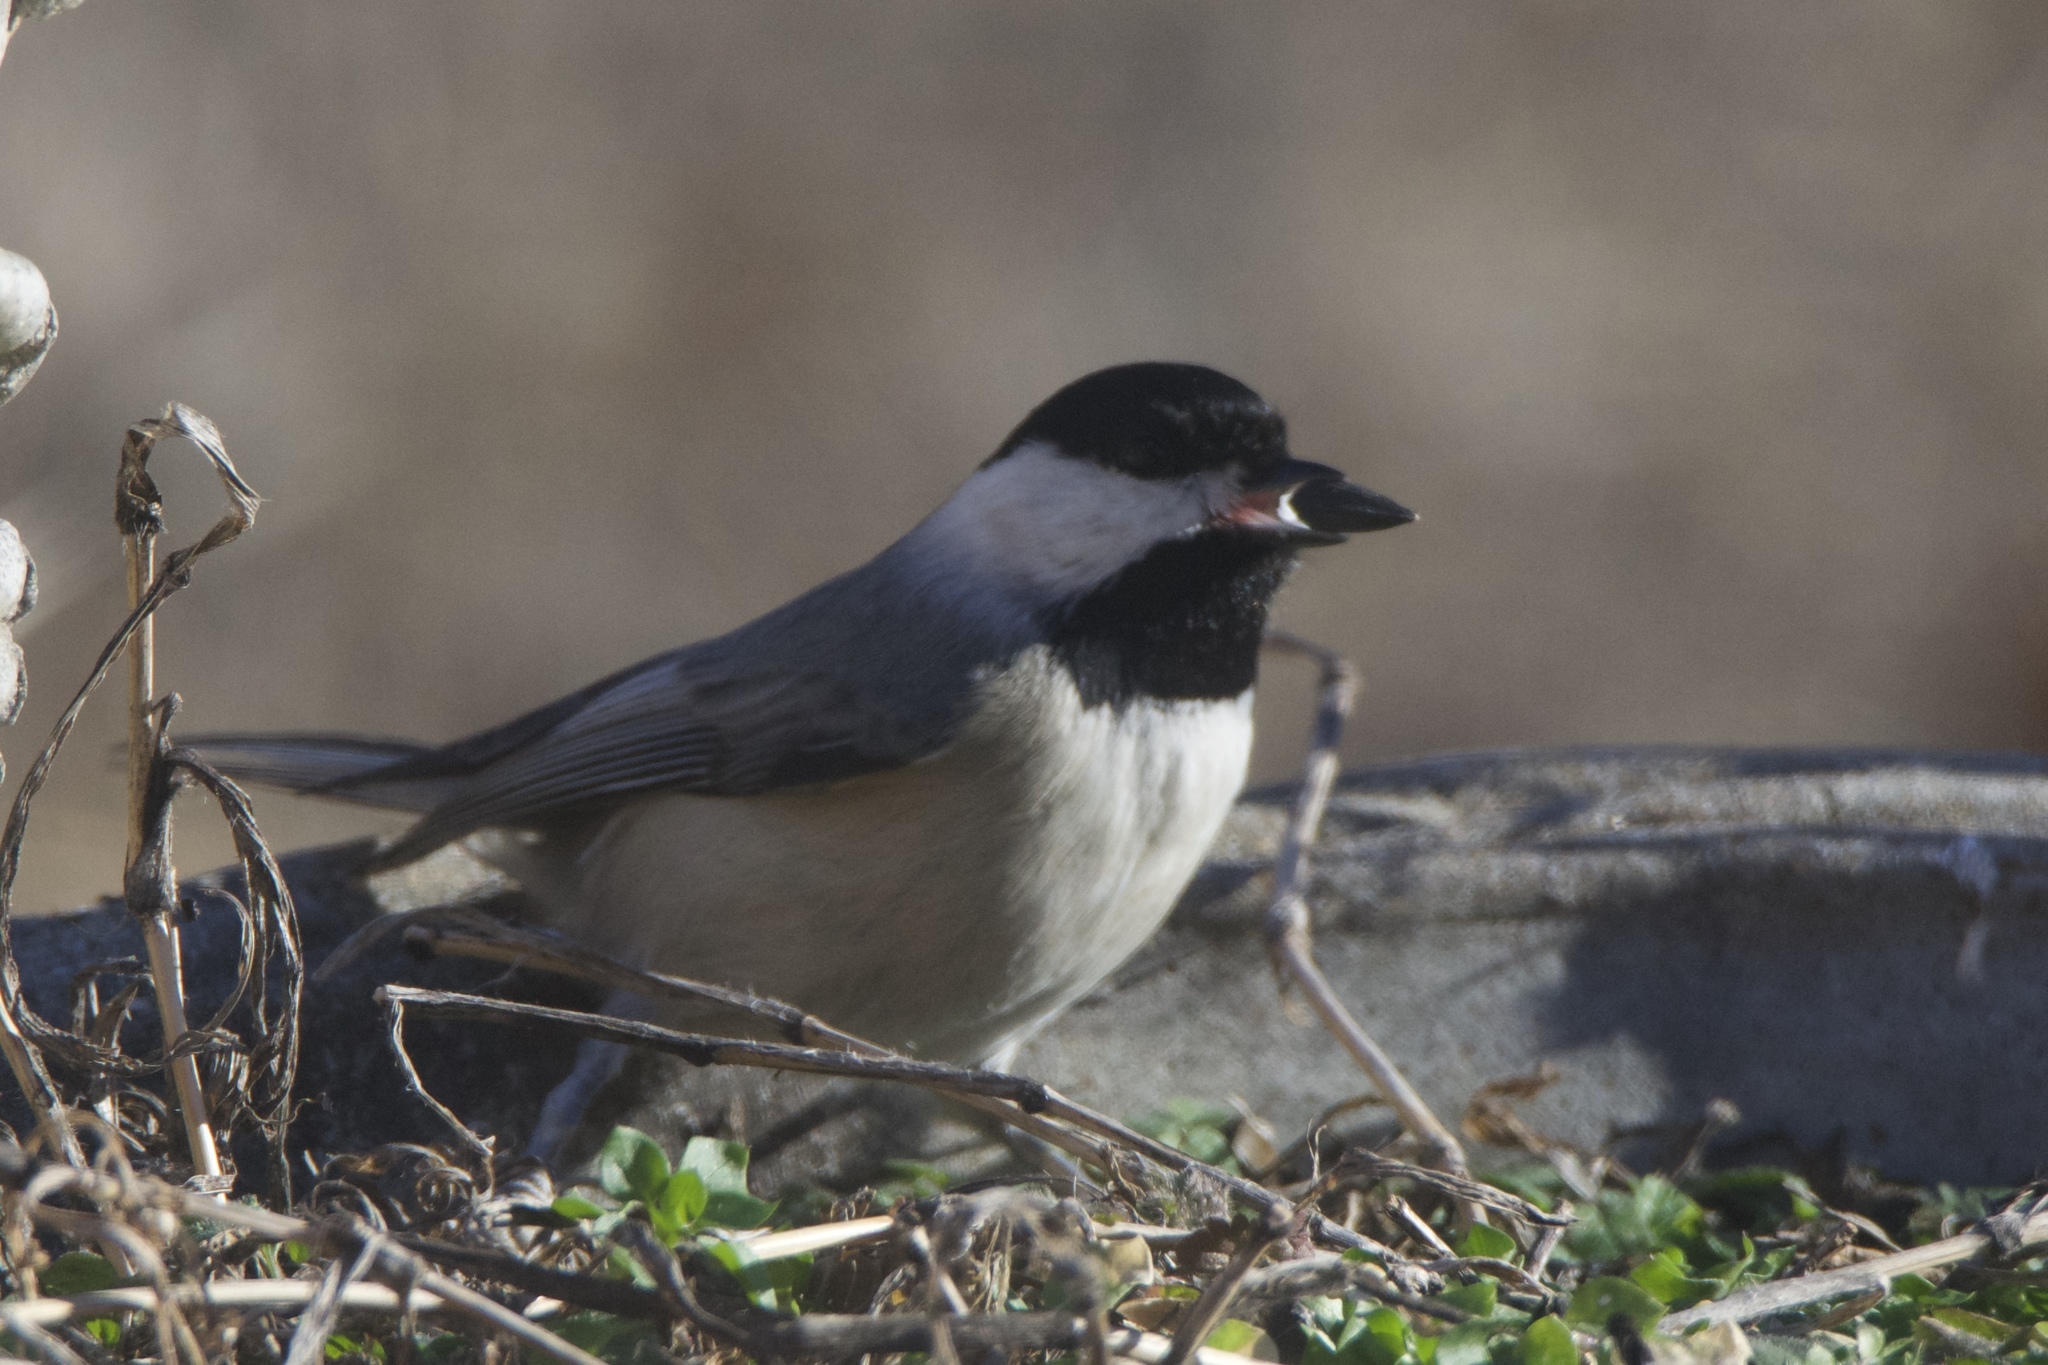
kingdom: Animalia
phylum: Chordata
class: Aves
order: Passeriformes
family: Paridae
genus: Poecile
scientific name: Poecile carolinensis
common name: Carolina chickadee
